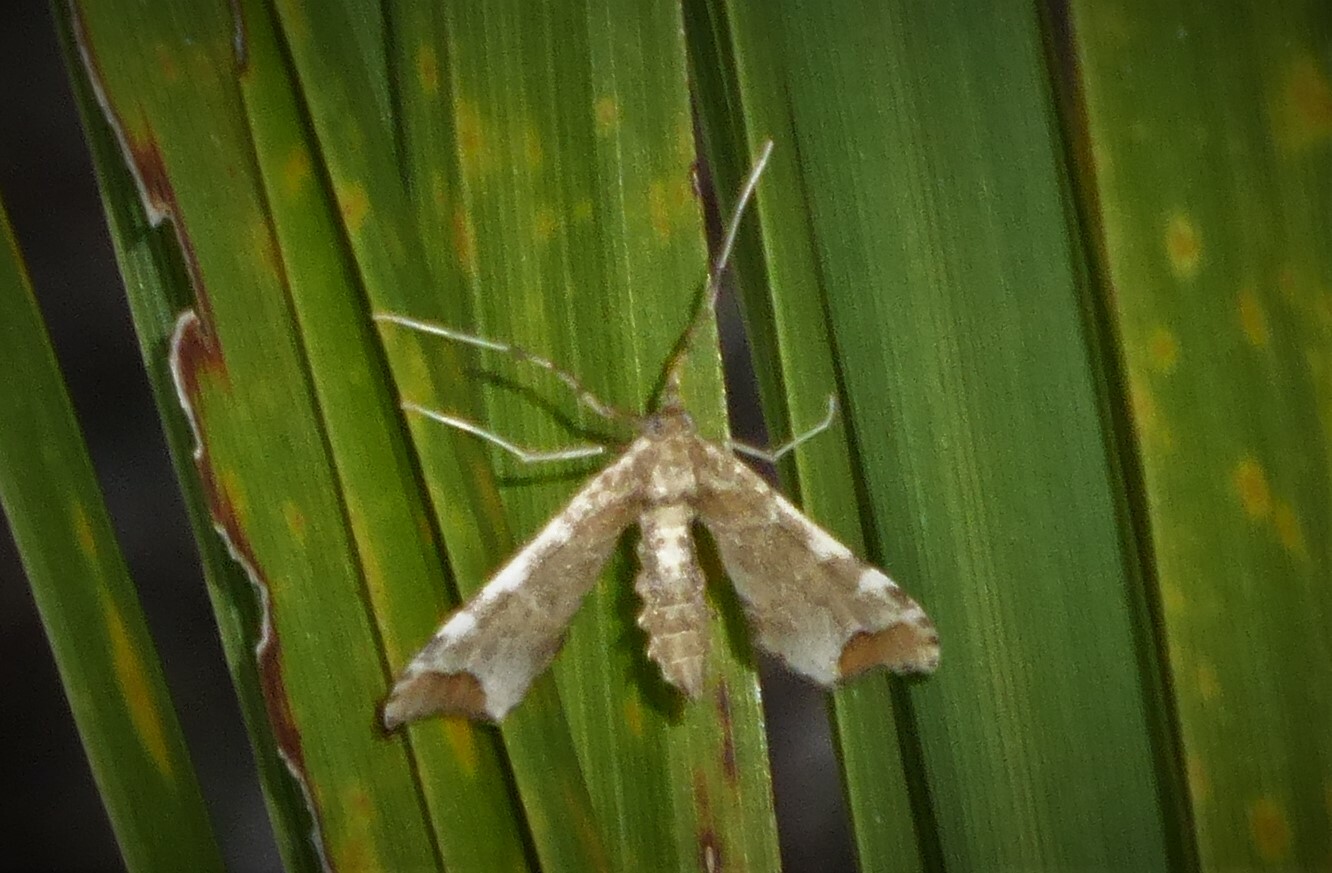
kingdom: Animalia
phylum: Arthropoda
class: Insecta
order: Lepidoptera
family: Crambidae
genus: Sceliodes
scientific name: Sceliodes cordalis
